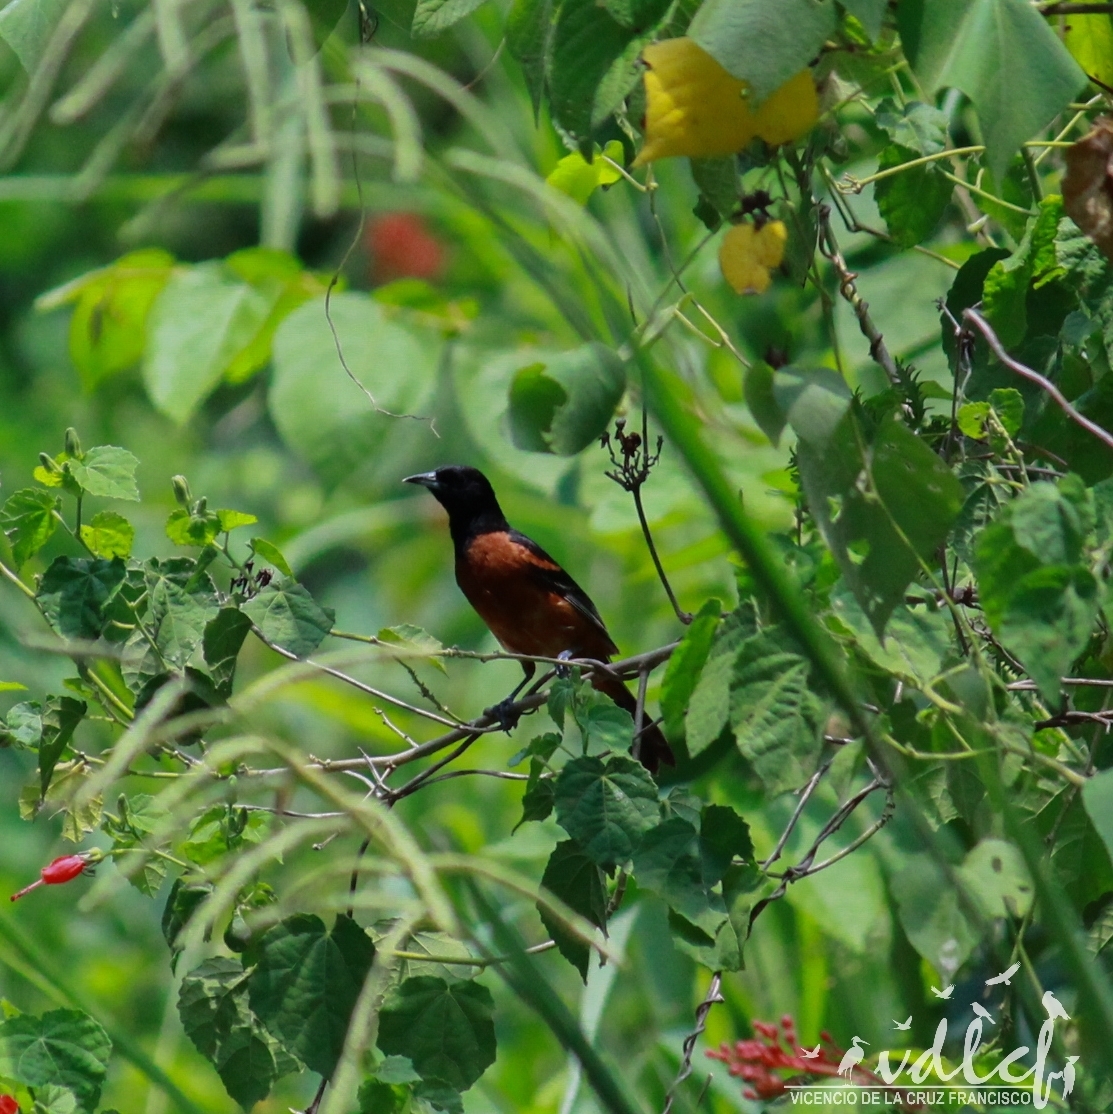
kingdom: Animalia
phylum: Chordata
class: Aves
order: Passeriformes
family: Icteridae
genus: Icterus
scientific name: Icterus spurius
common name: Orchard oriole
